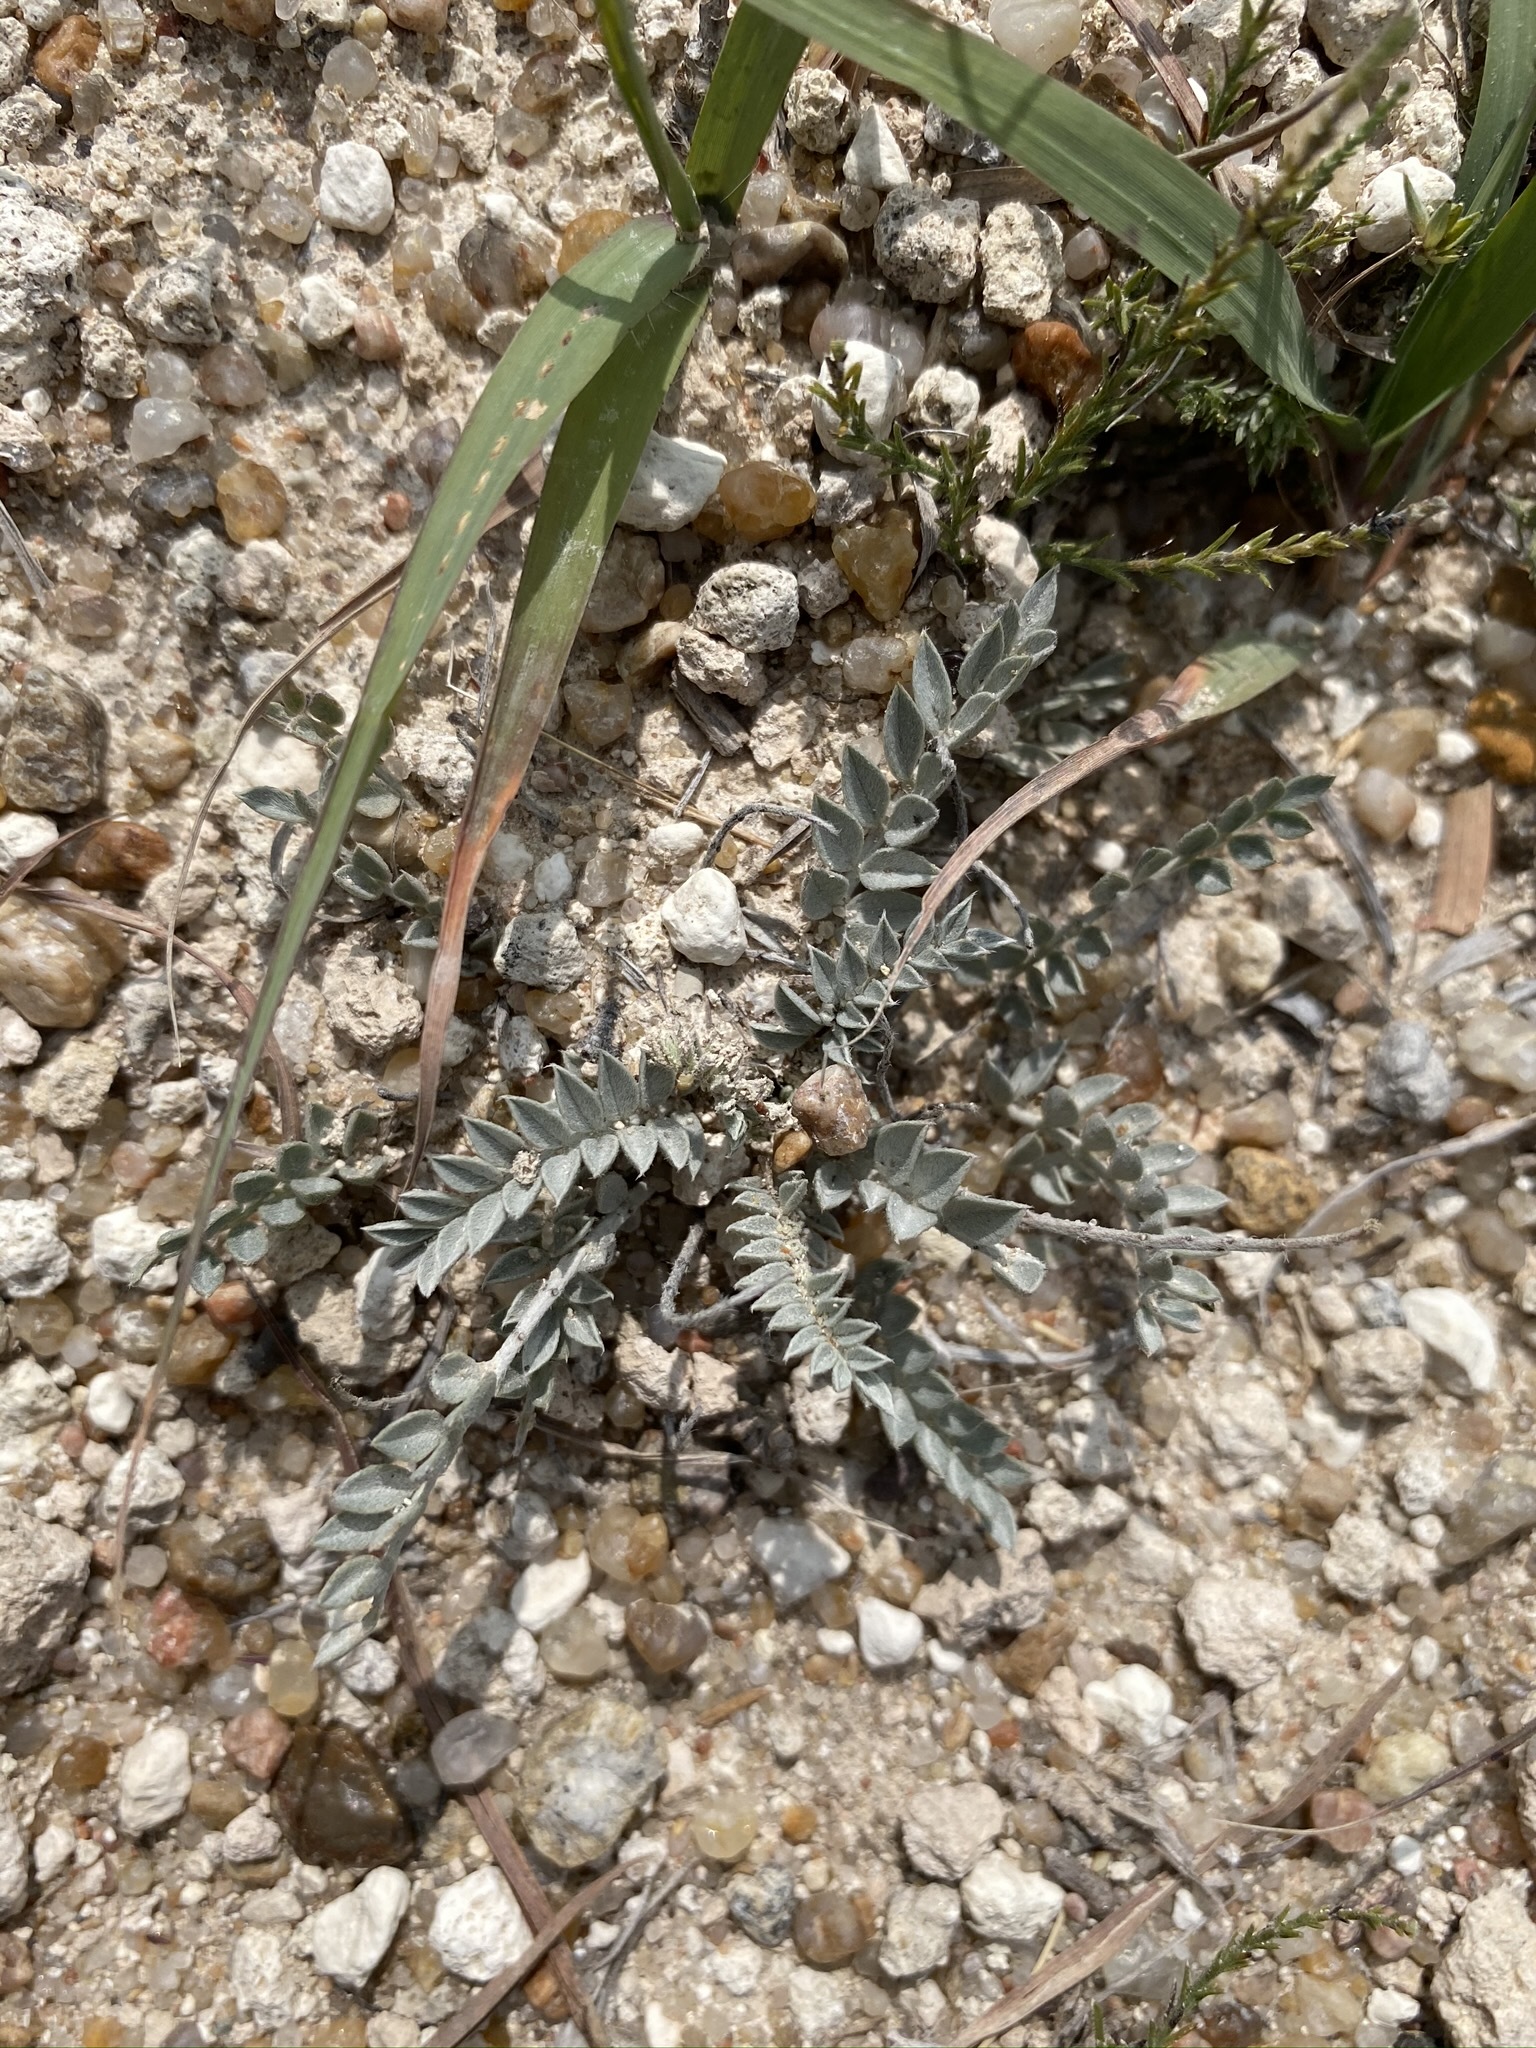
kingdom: Plantae
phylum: Tracheophyta
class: Magnoliopsida
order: Fabales
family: Fabaceae
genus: Astragalus
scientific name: Astragalus missouriensis
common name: Missouri milk-vetch
